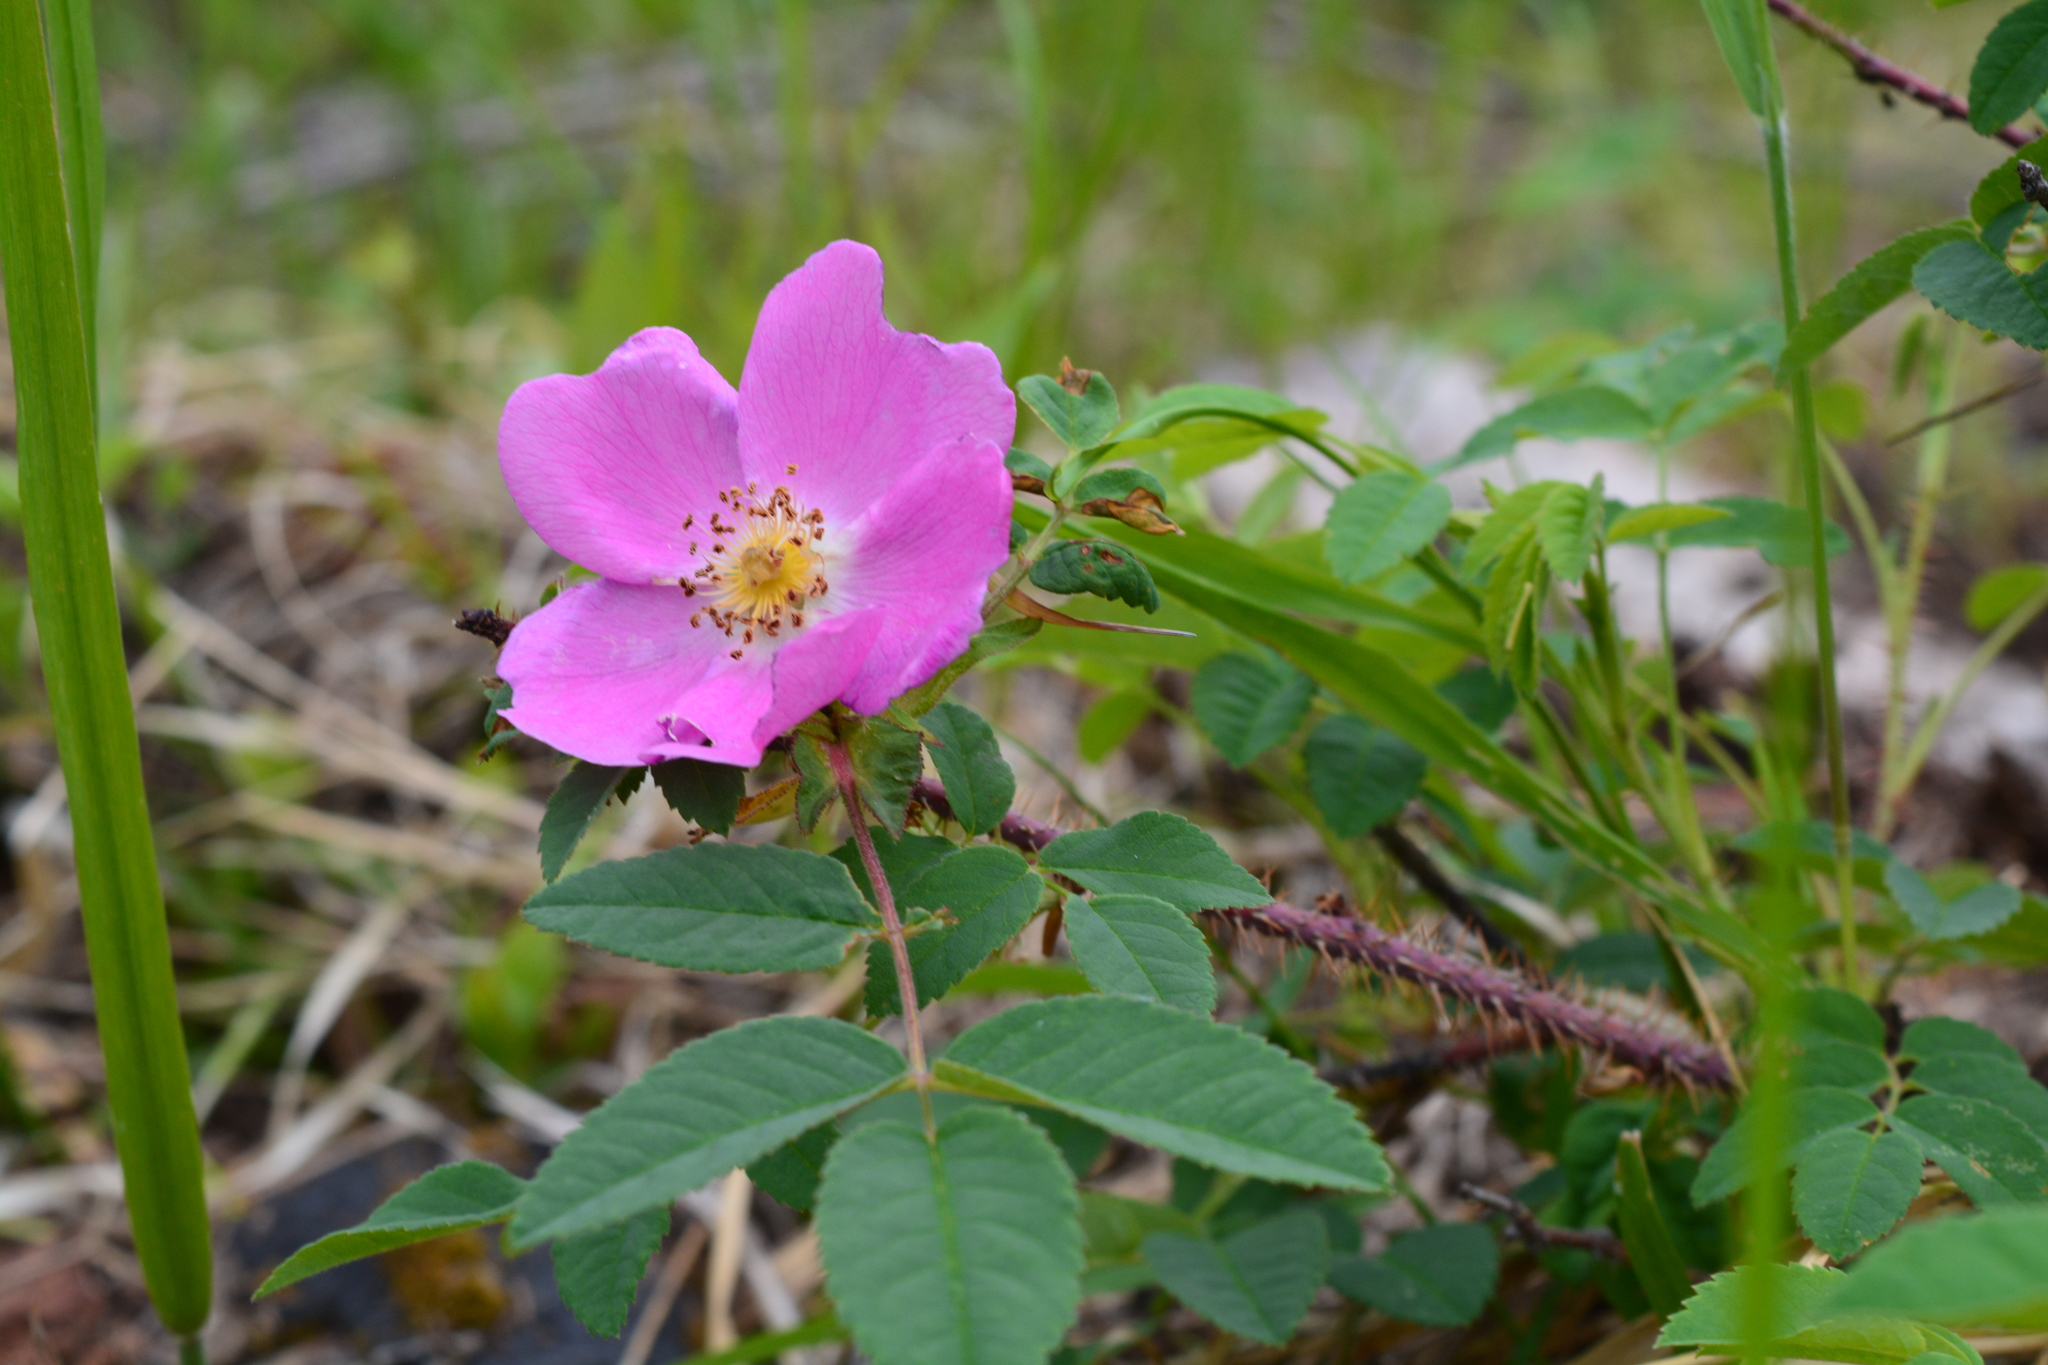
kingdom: Plantae
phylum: Tracheophyta
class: Magnoliopsida
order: Rosales
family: Rosaceae
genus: Rosa
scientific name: Rosa acicularis
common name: Prickly rose
